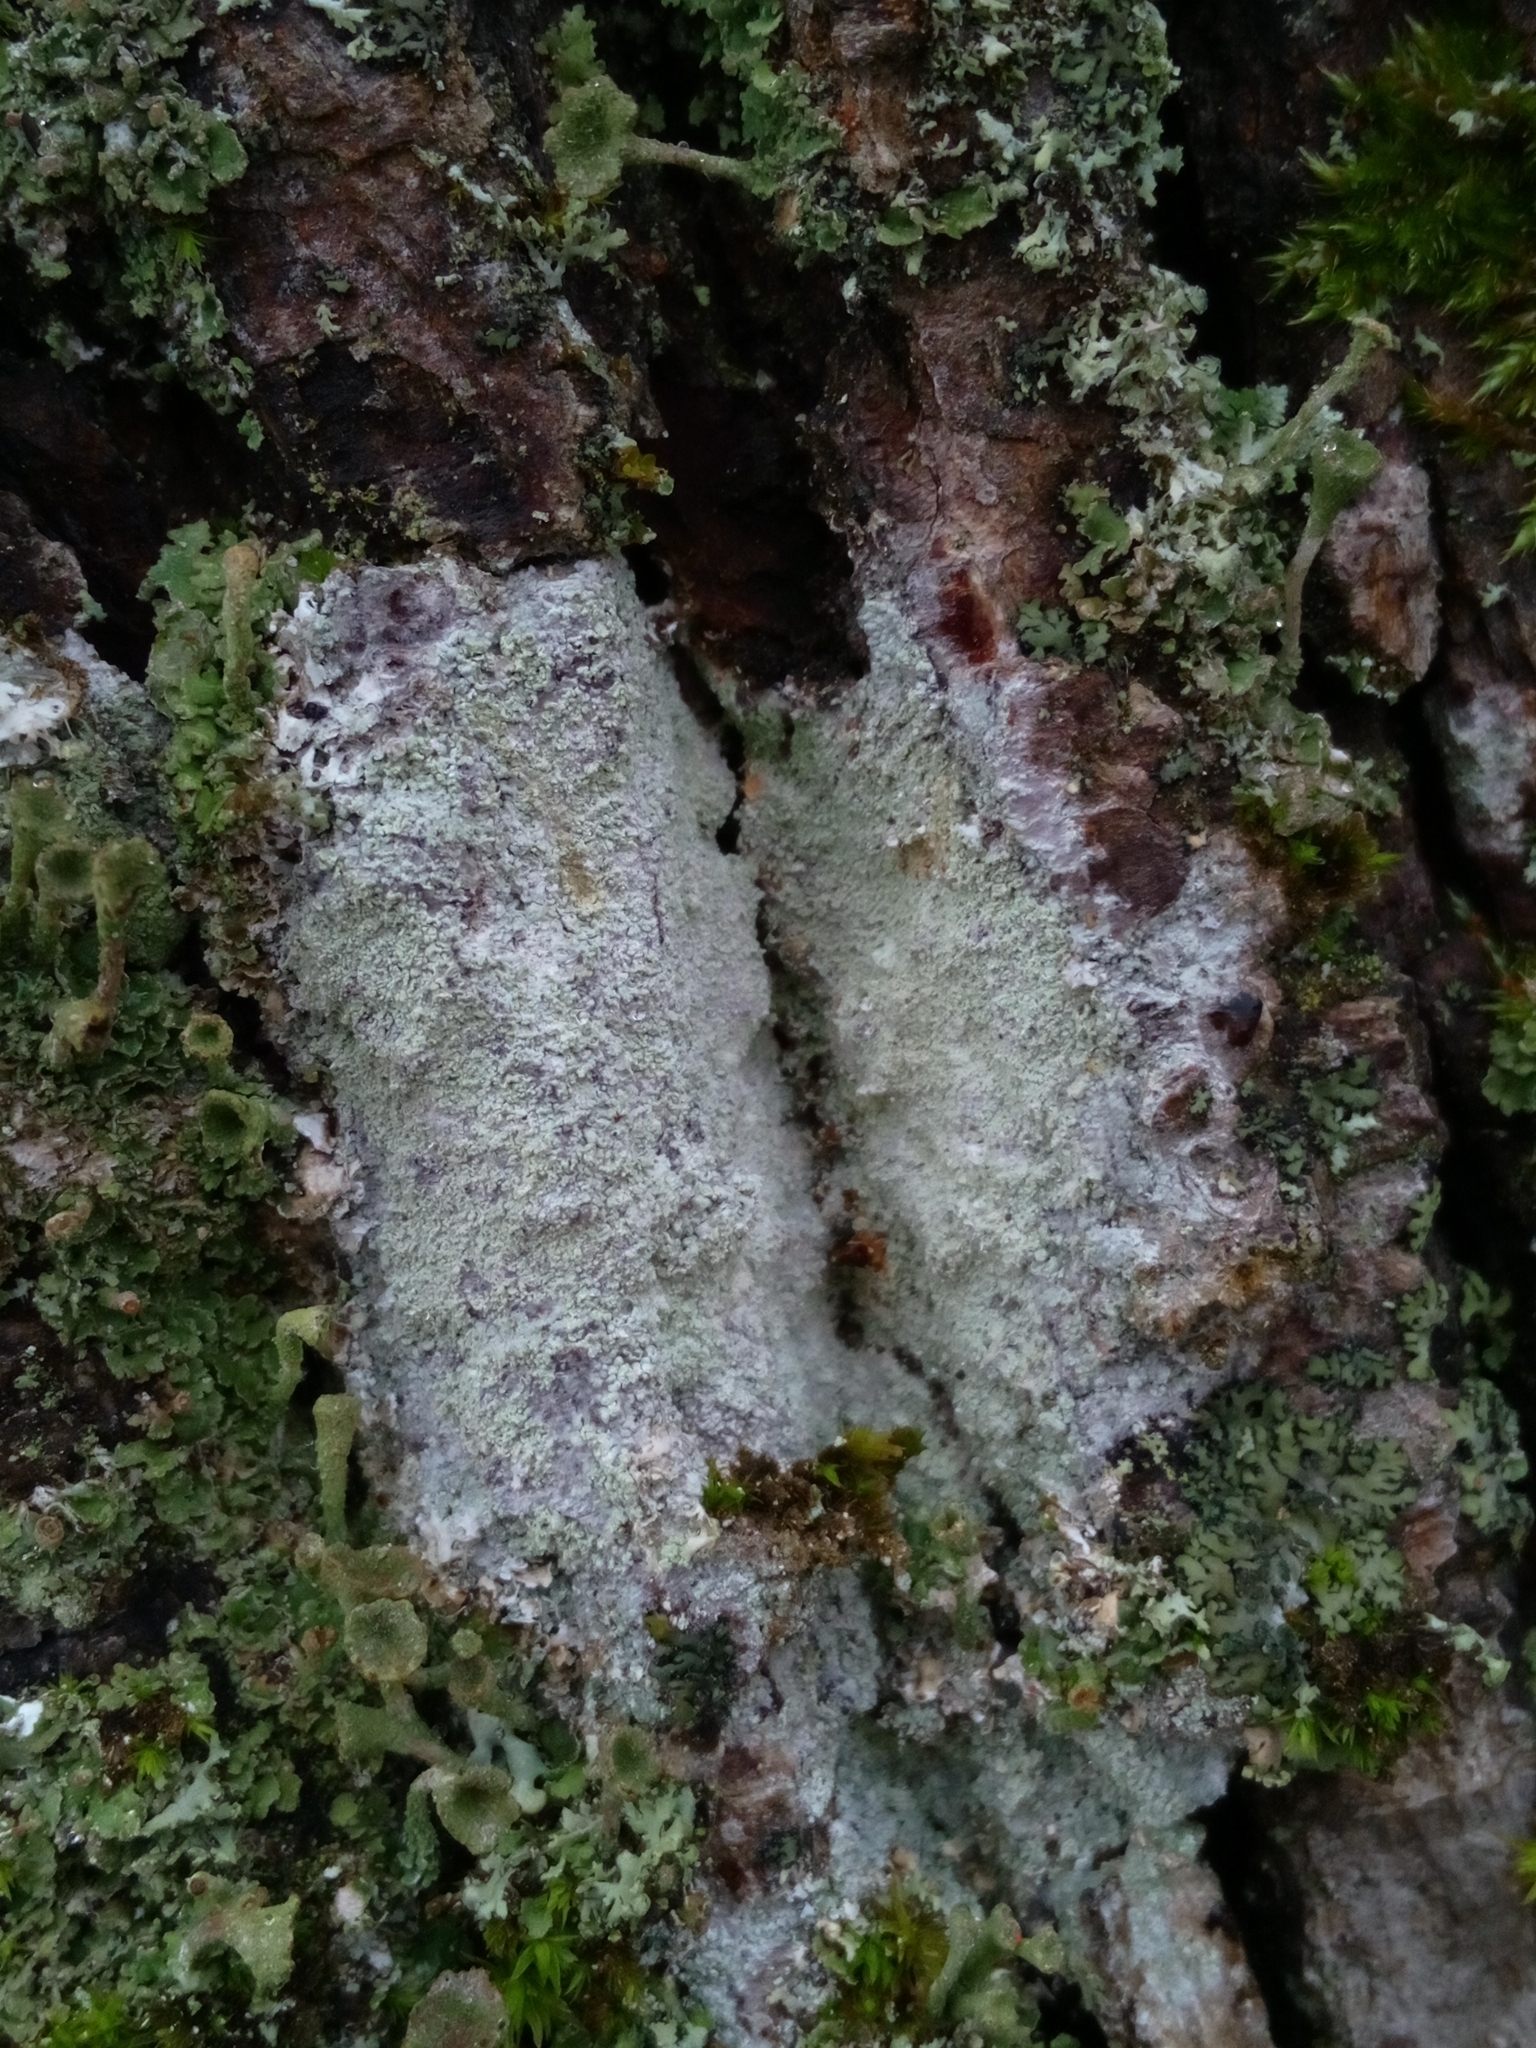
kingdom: Fungi
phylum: Ascomycota
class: Lecanoromycetes
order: Ostropales
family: Phlyctidaceae
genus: Phlyctis
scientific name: Phlyctis argena
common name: Whitewash lichen
